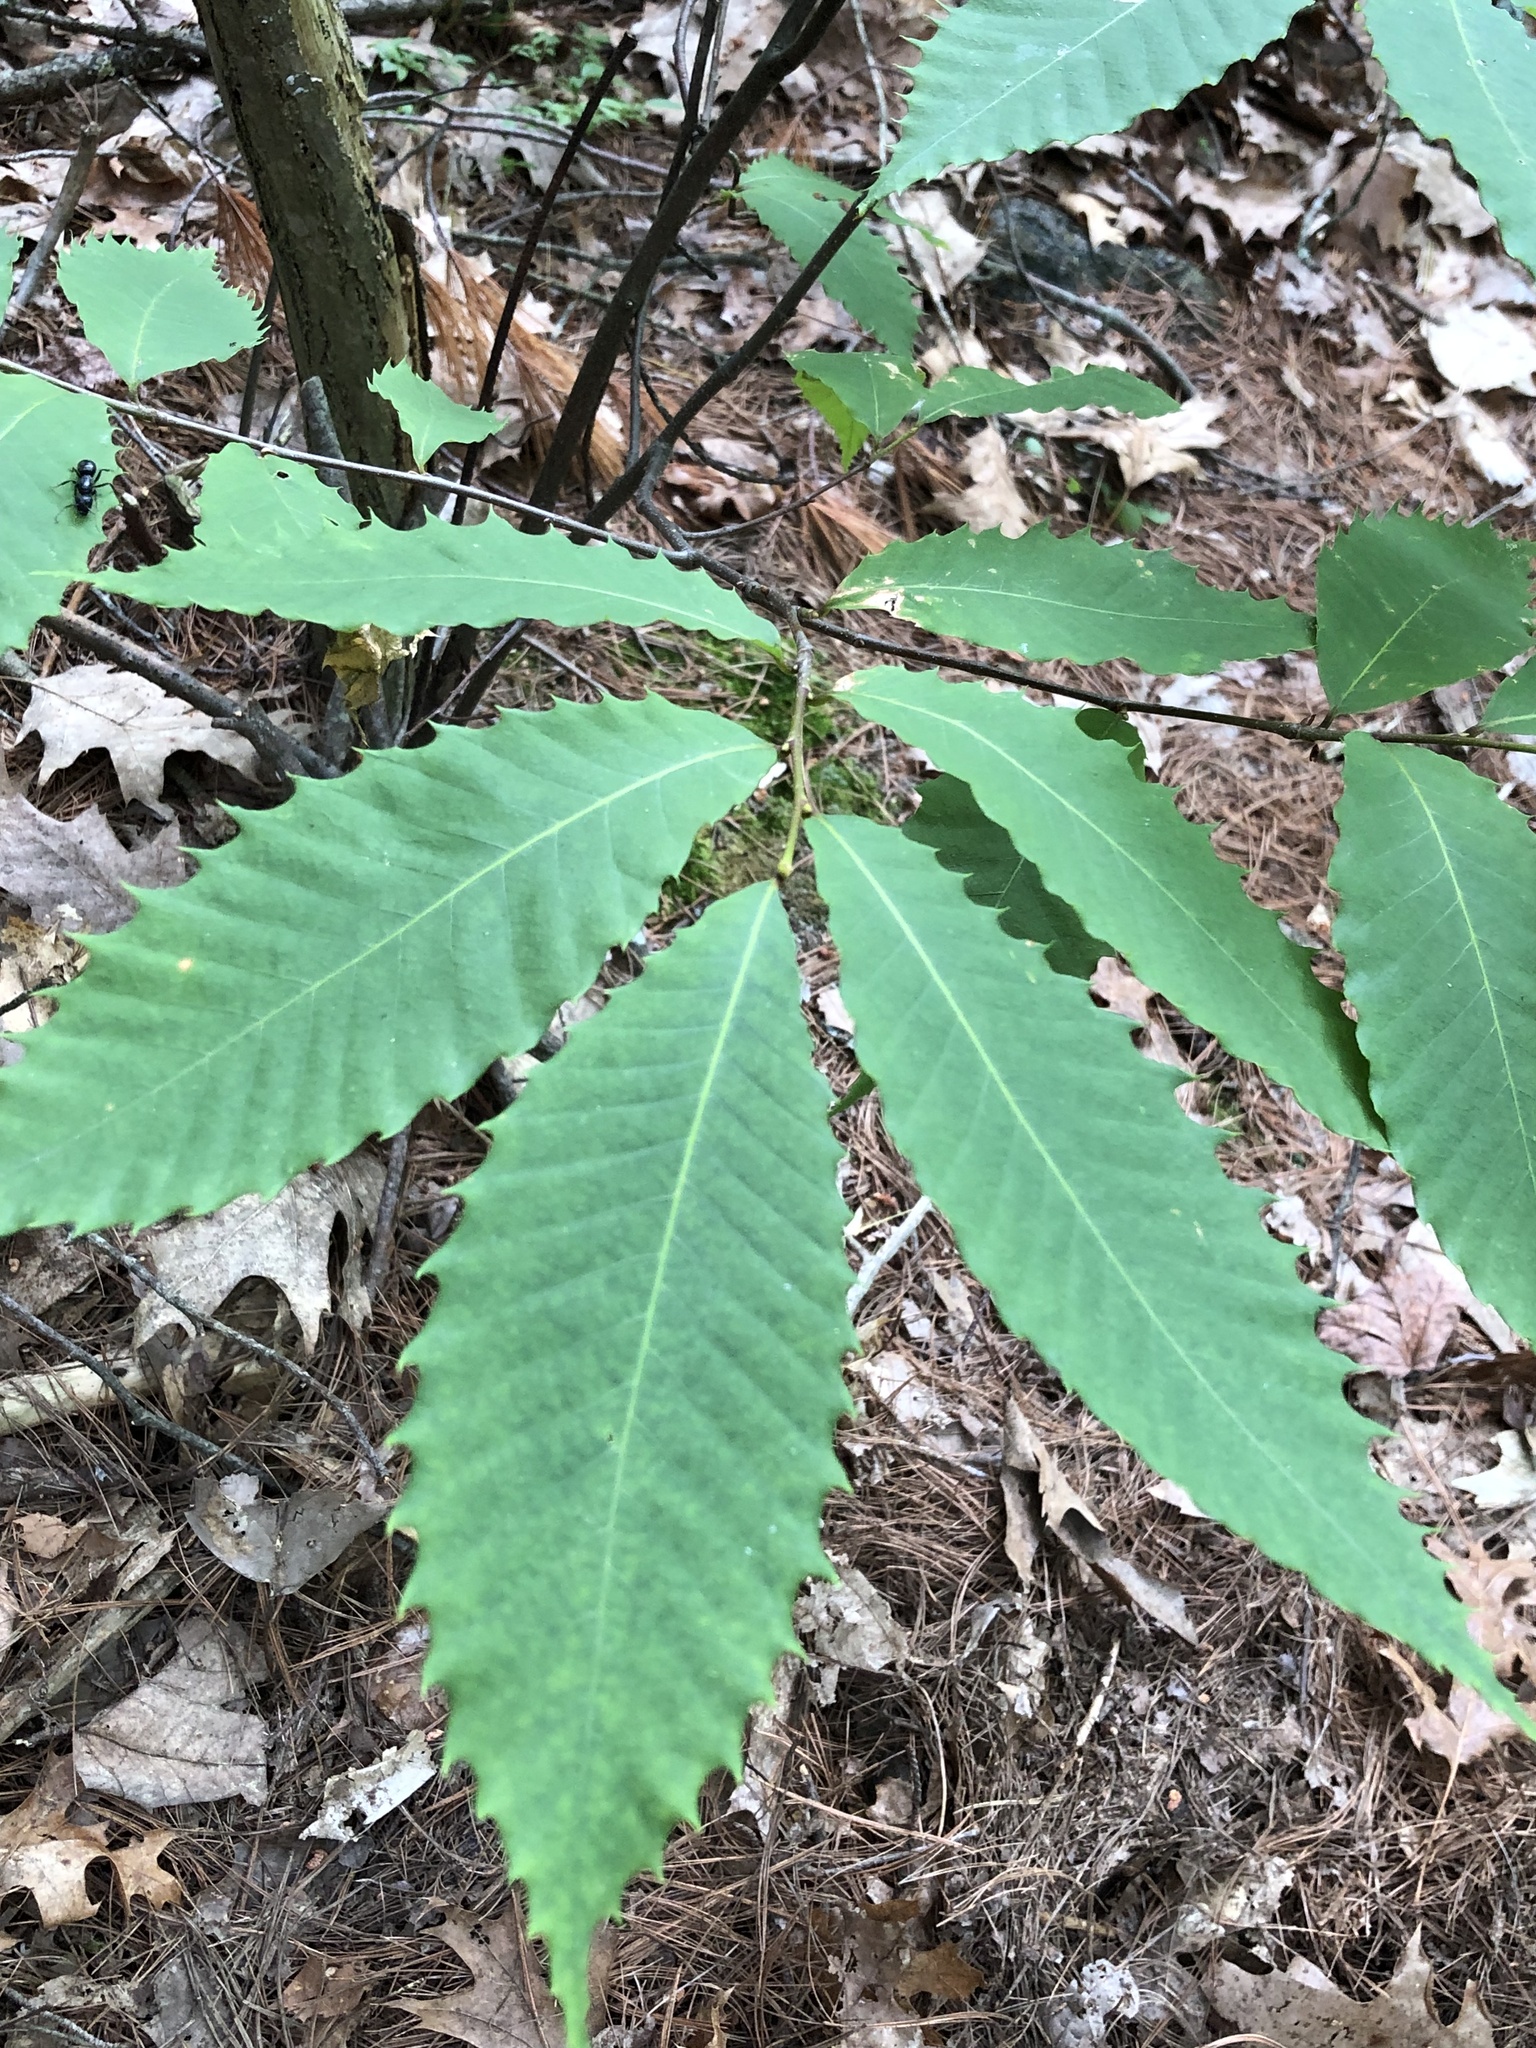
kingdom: Plantae
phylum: Tracheophyta
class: Magnoliopsida
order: Fagales
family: Fagaceae
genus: Castanea
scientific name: Castanea dentata
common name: American chestnut
